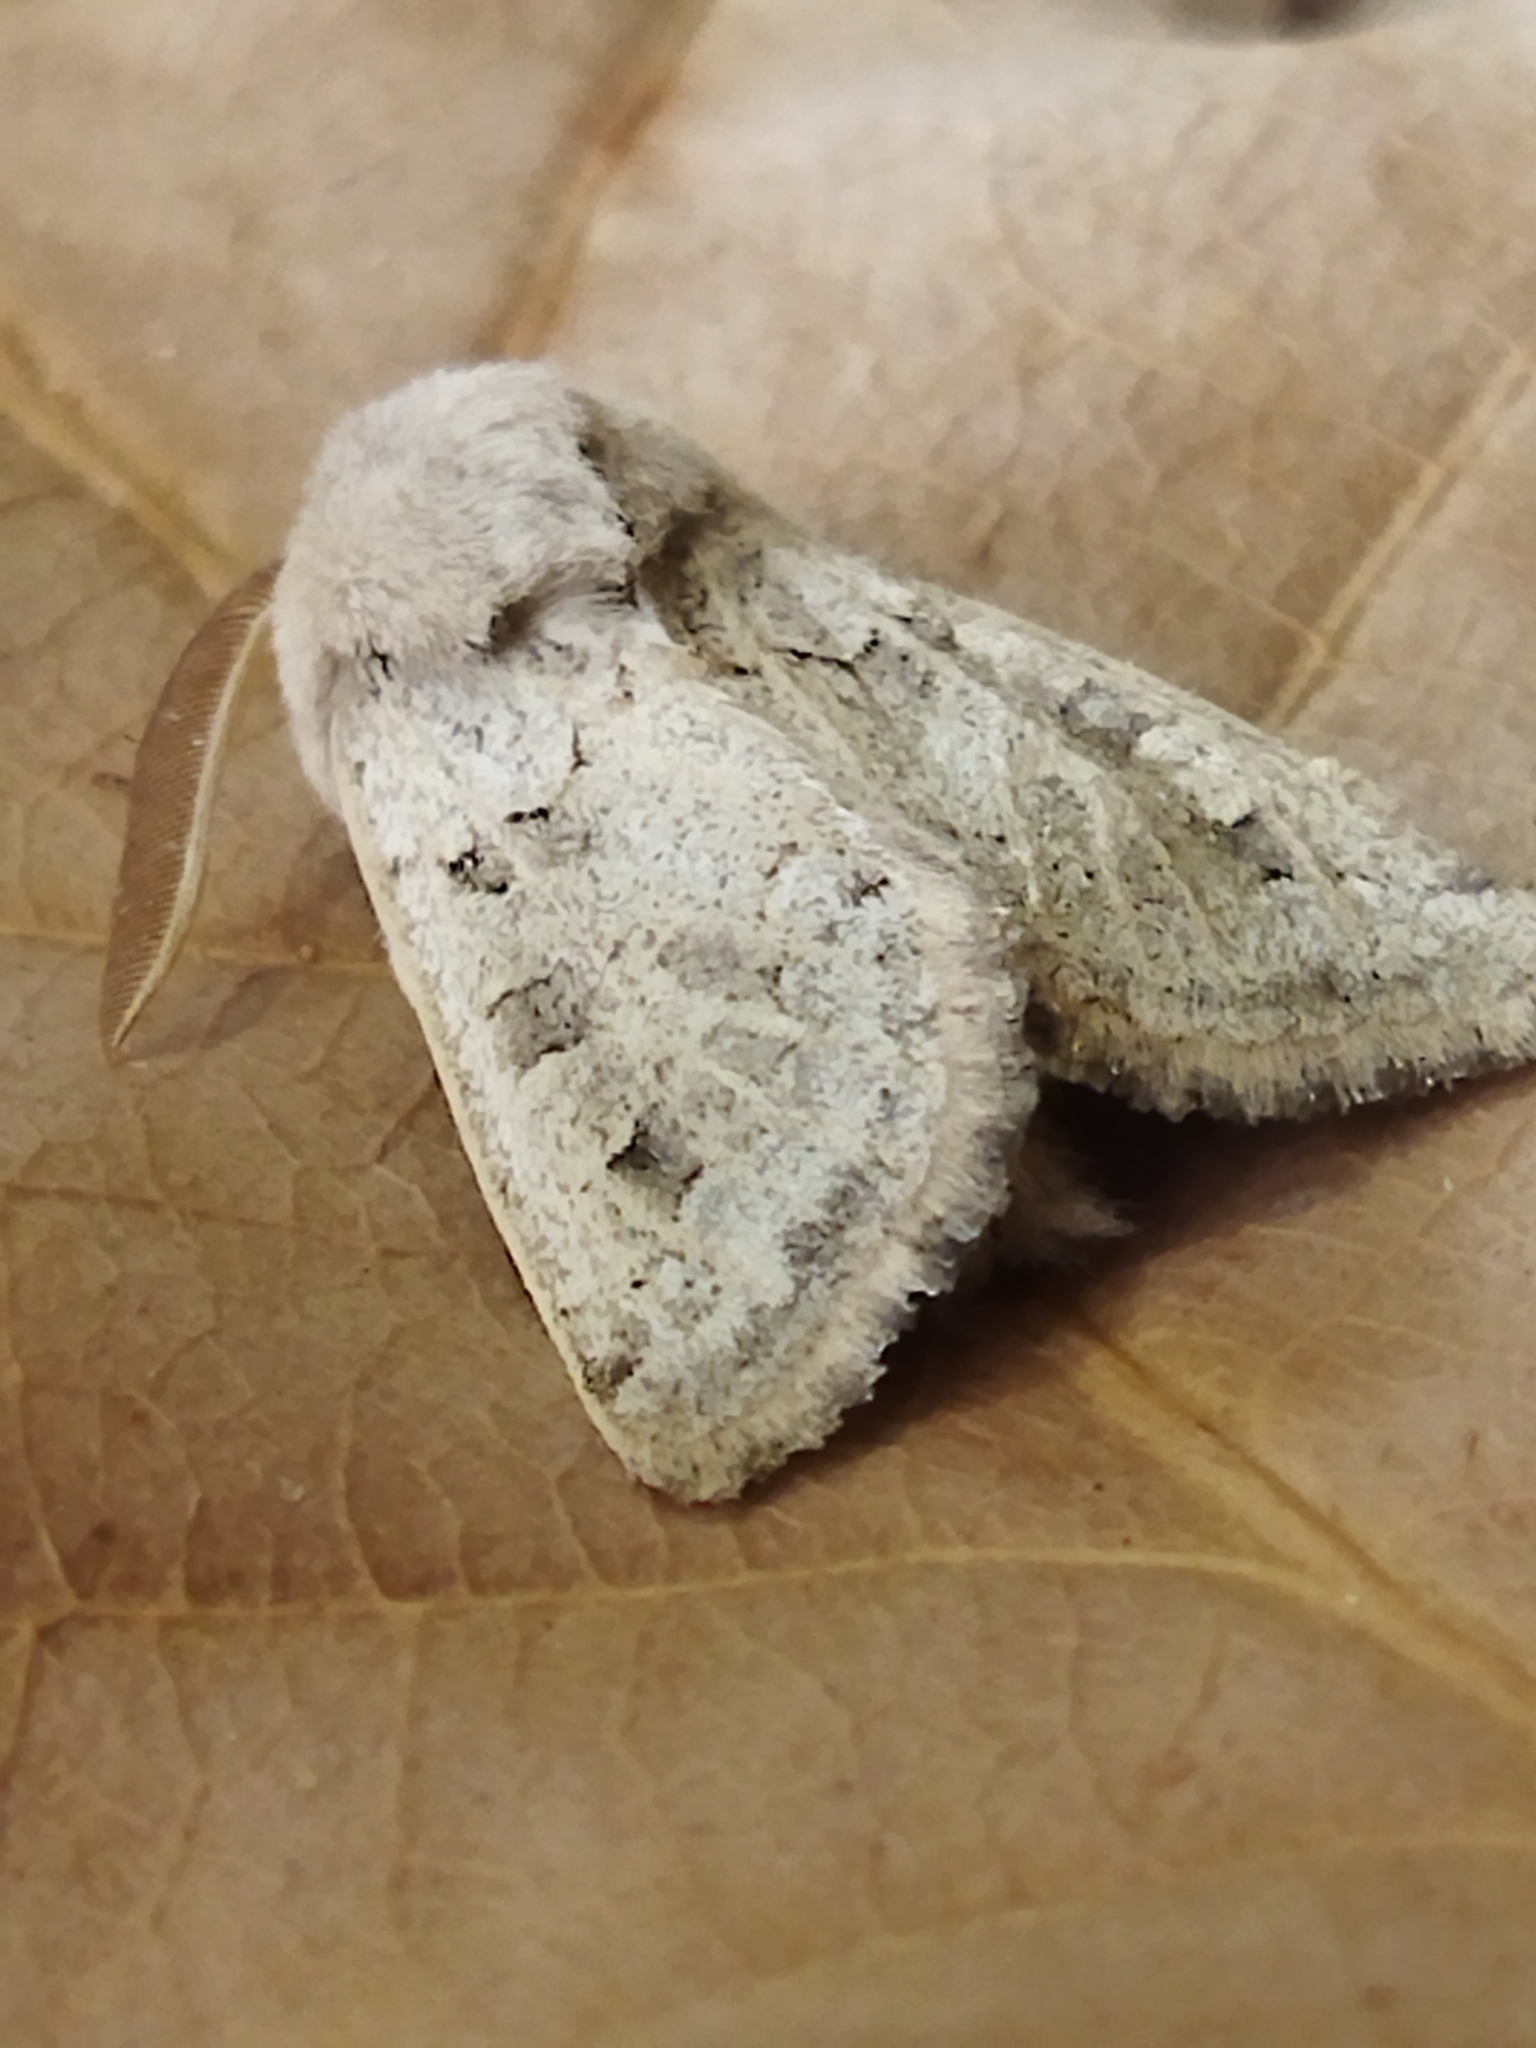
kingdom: Animalia
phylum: Arthropoda
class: Insecta
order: Lepidoptera
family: Noctuidae
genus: Episema
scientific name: Episema lederi
